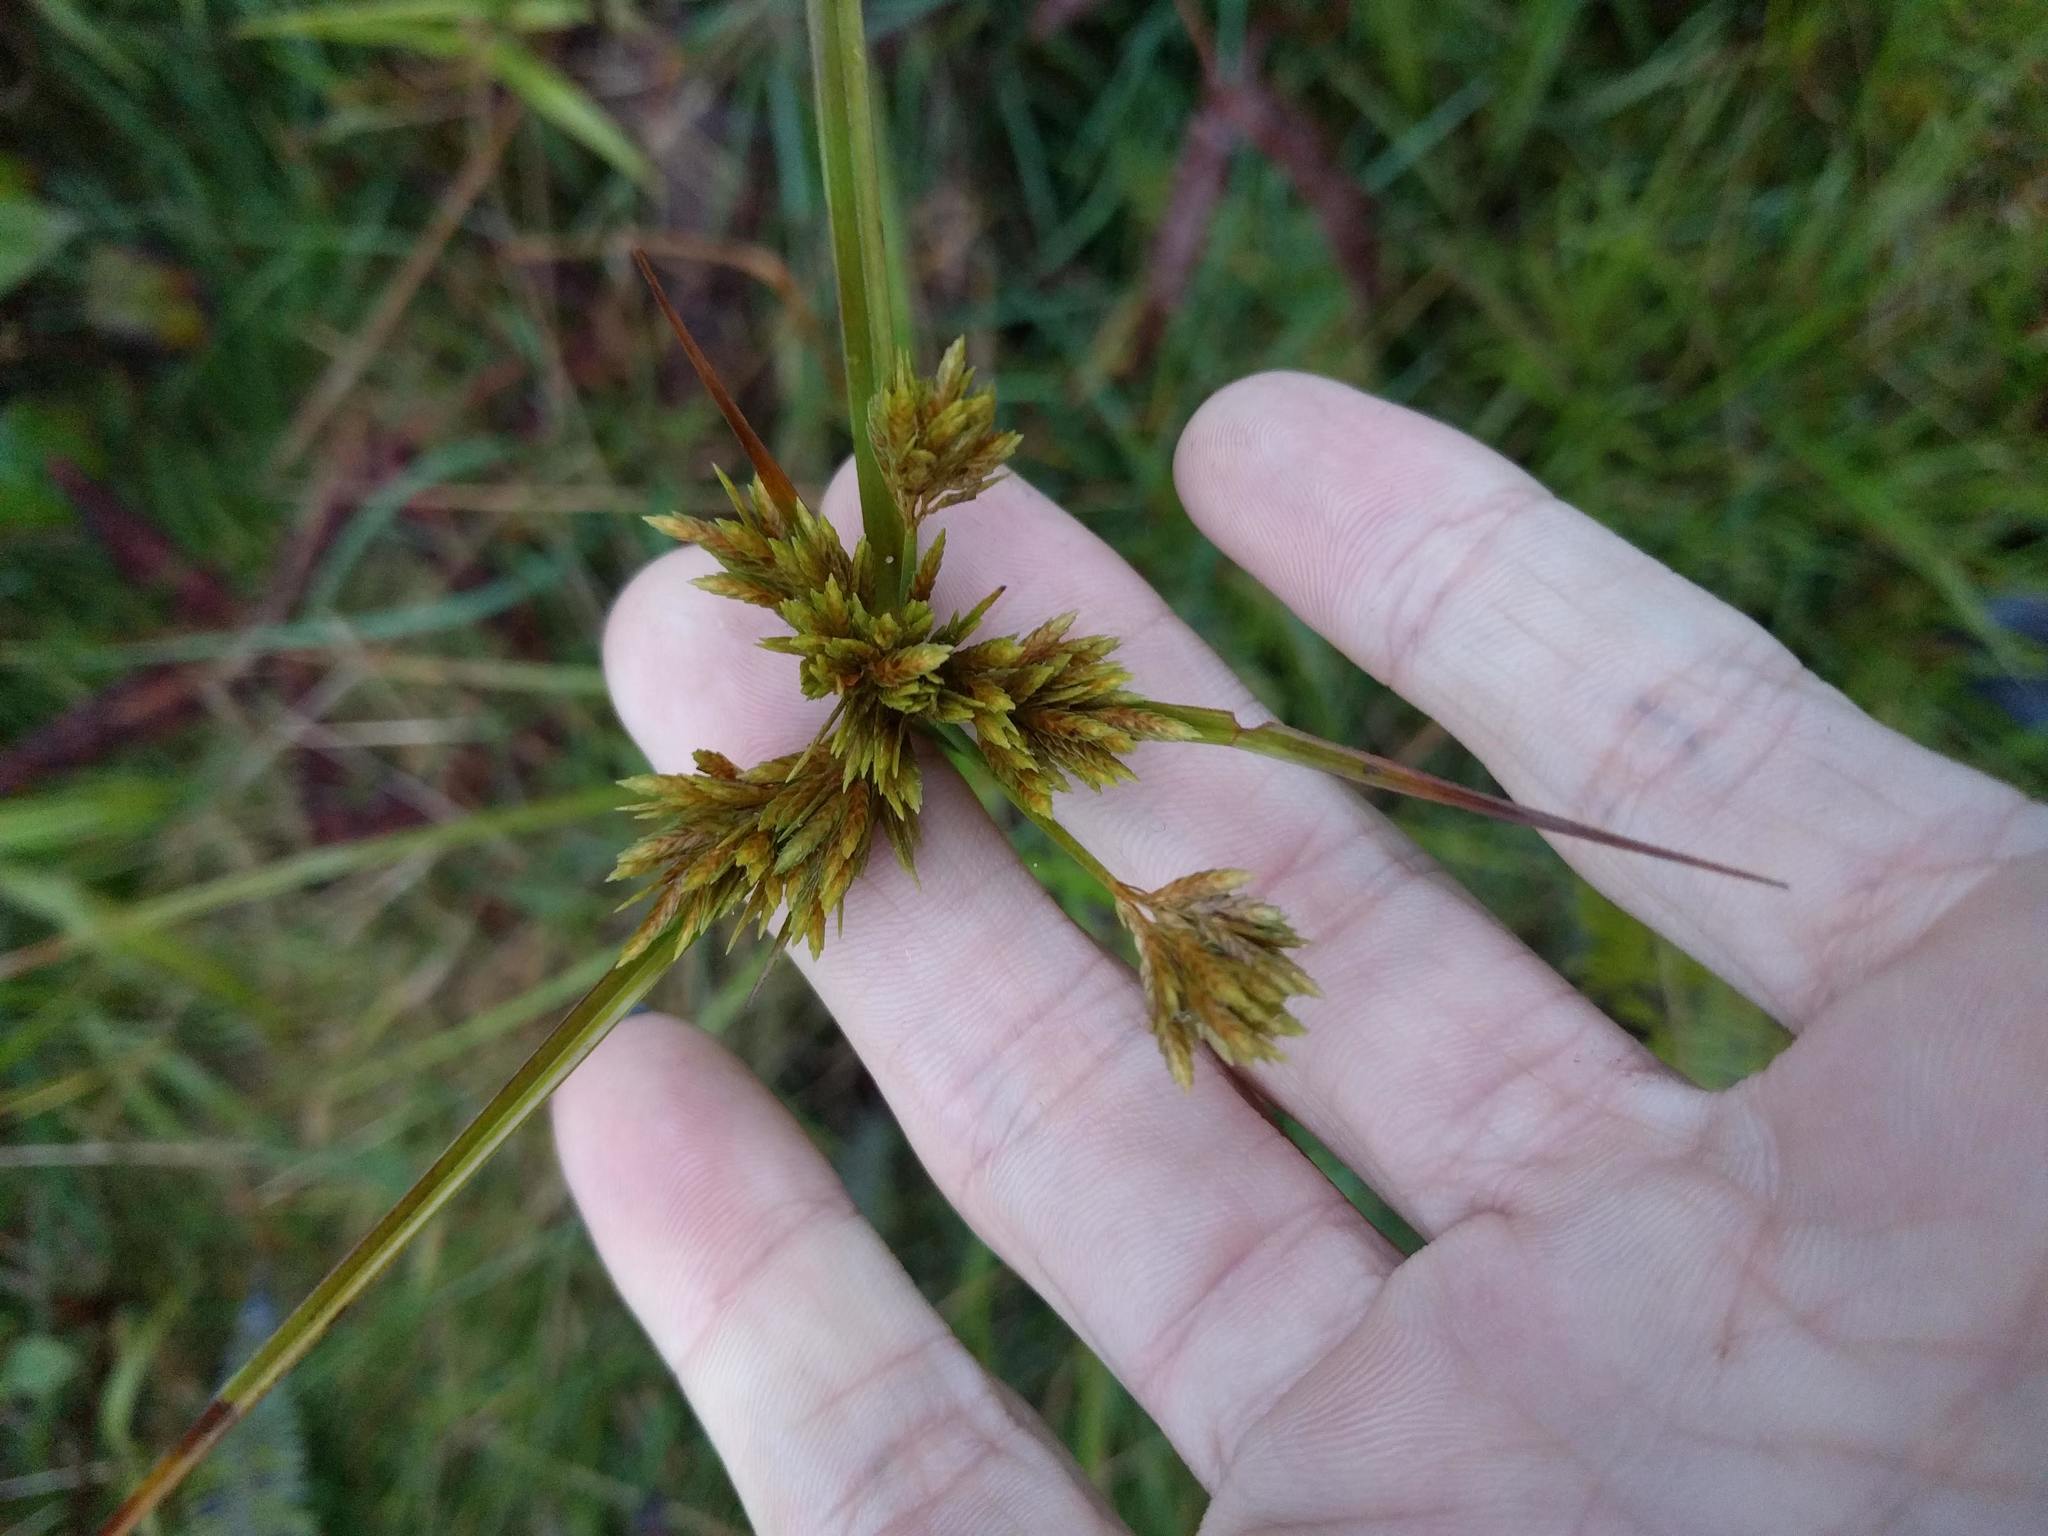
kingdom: Plantae
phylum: Tracheophyta
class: Liliopsida
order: Poales
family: Cyperaceae
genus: Cyperus
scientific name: Cyperus polystachyos
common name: Bunchy flat sedge
